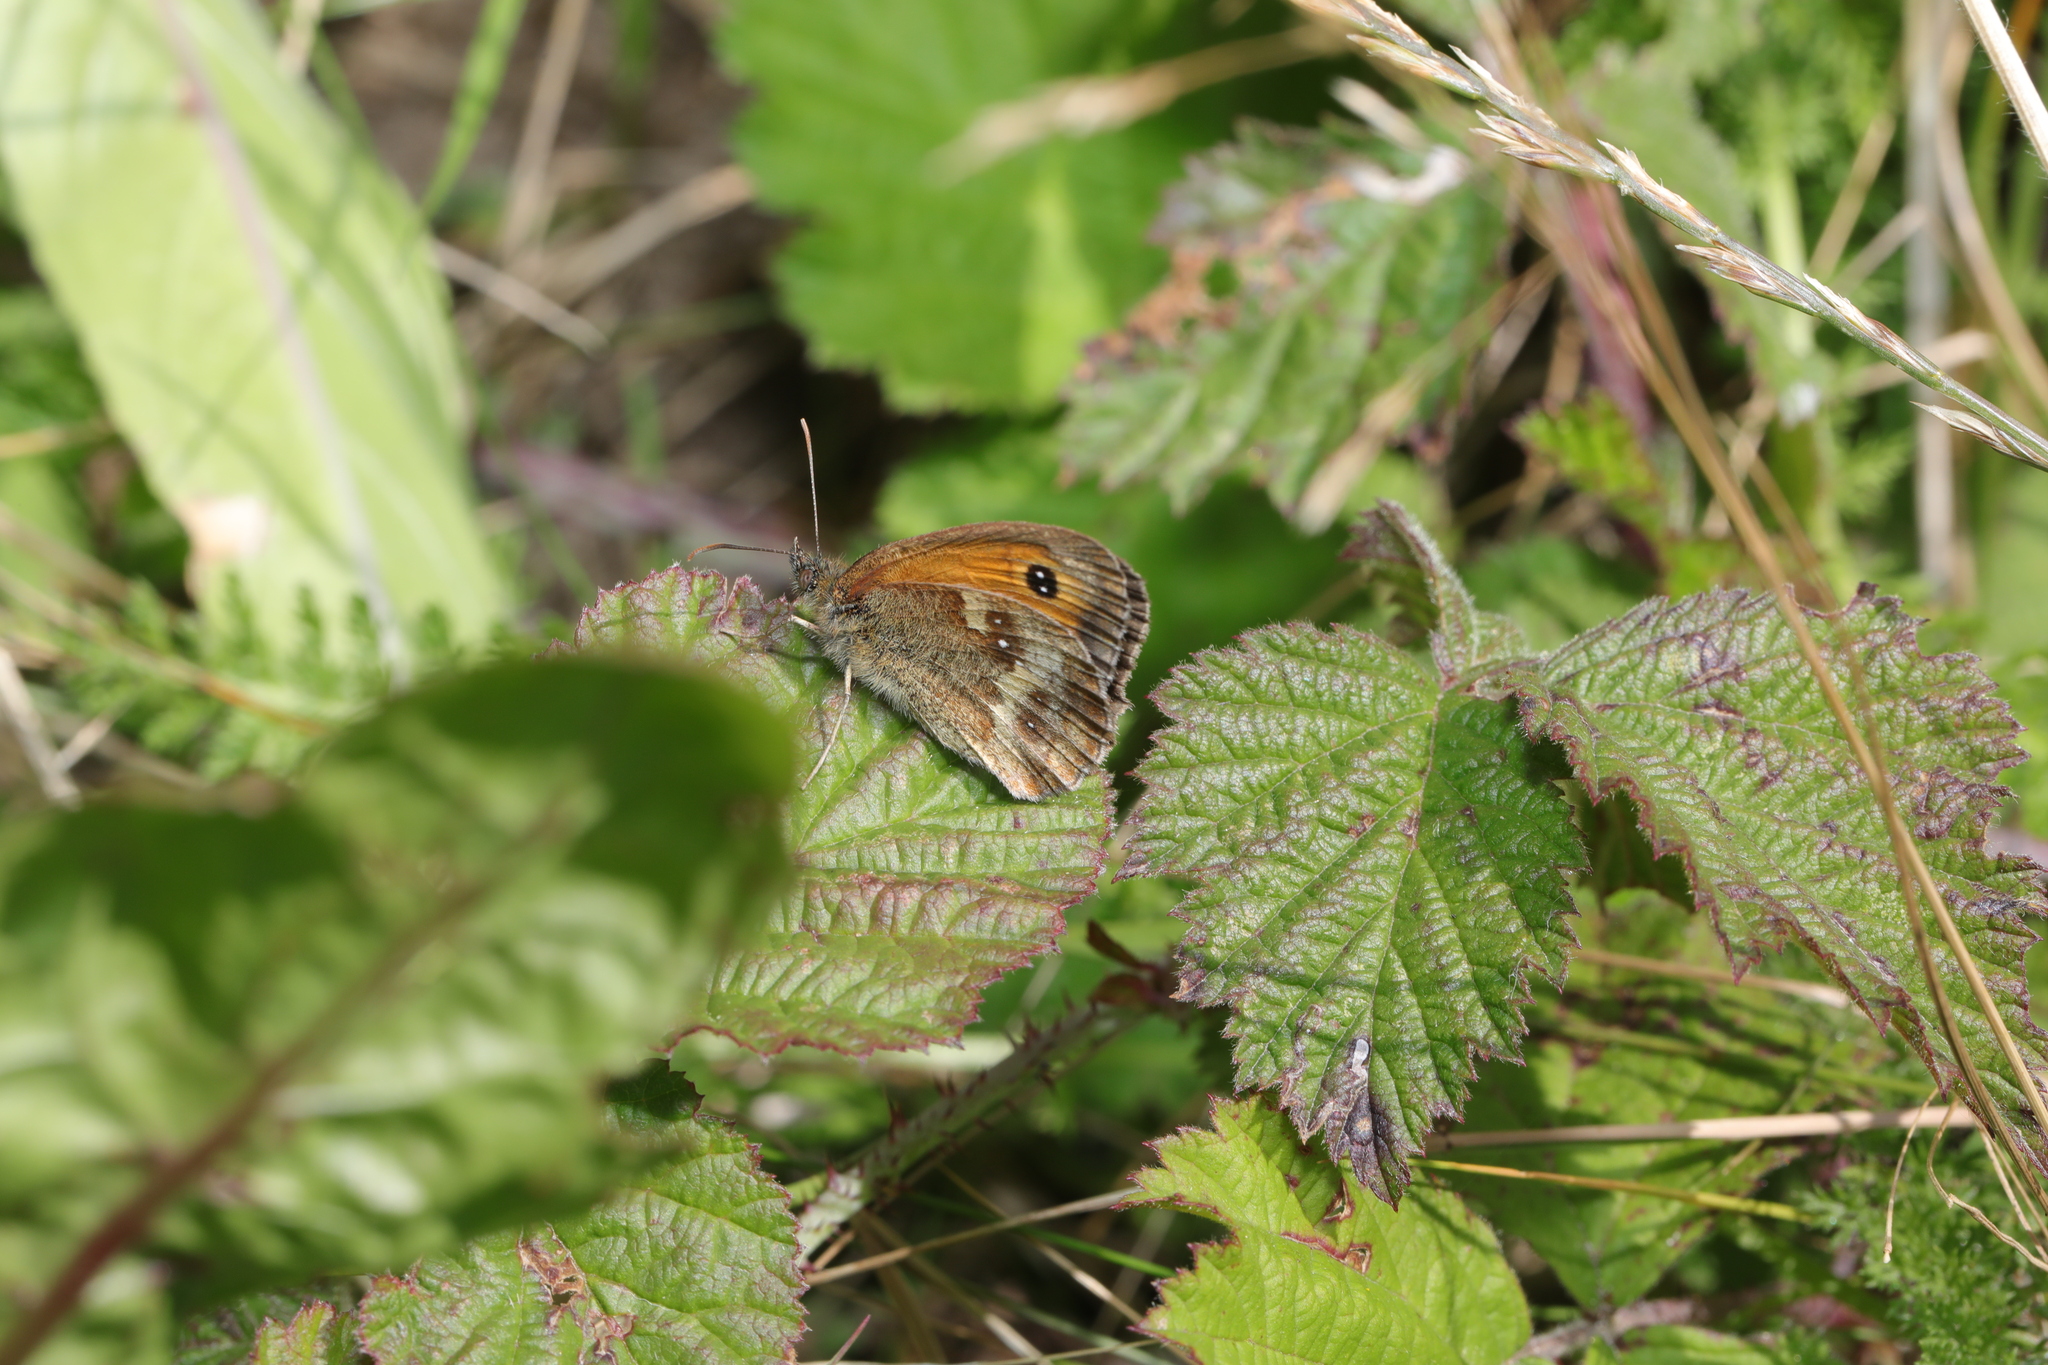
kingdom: Animalia
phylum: Arthropoda
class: Insecta
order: Lepidoptera
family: Nymphalidae
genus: Pyronia
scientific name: Pyronia tithonus
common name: Gatekeeper
